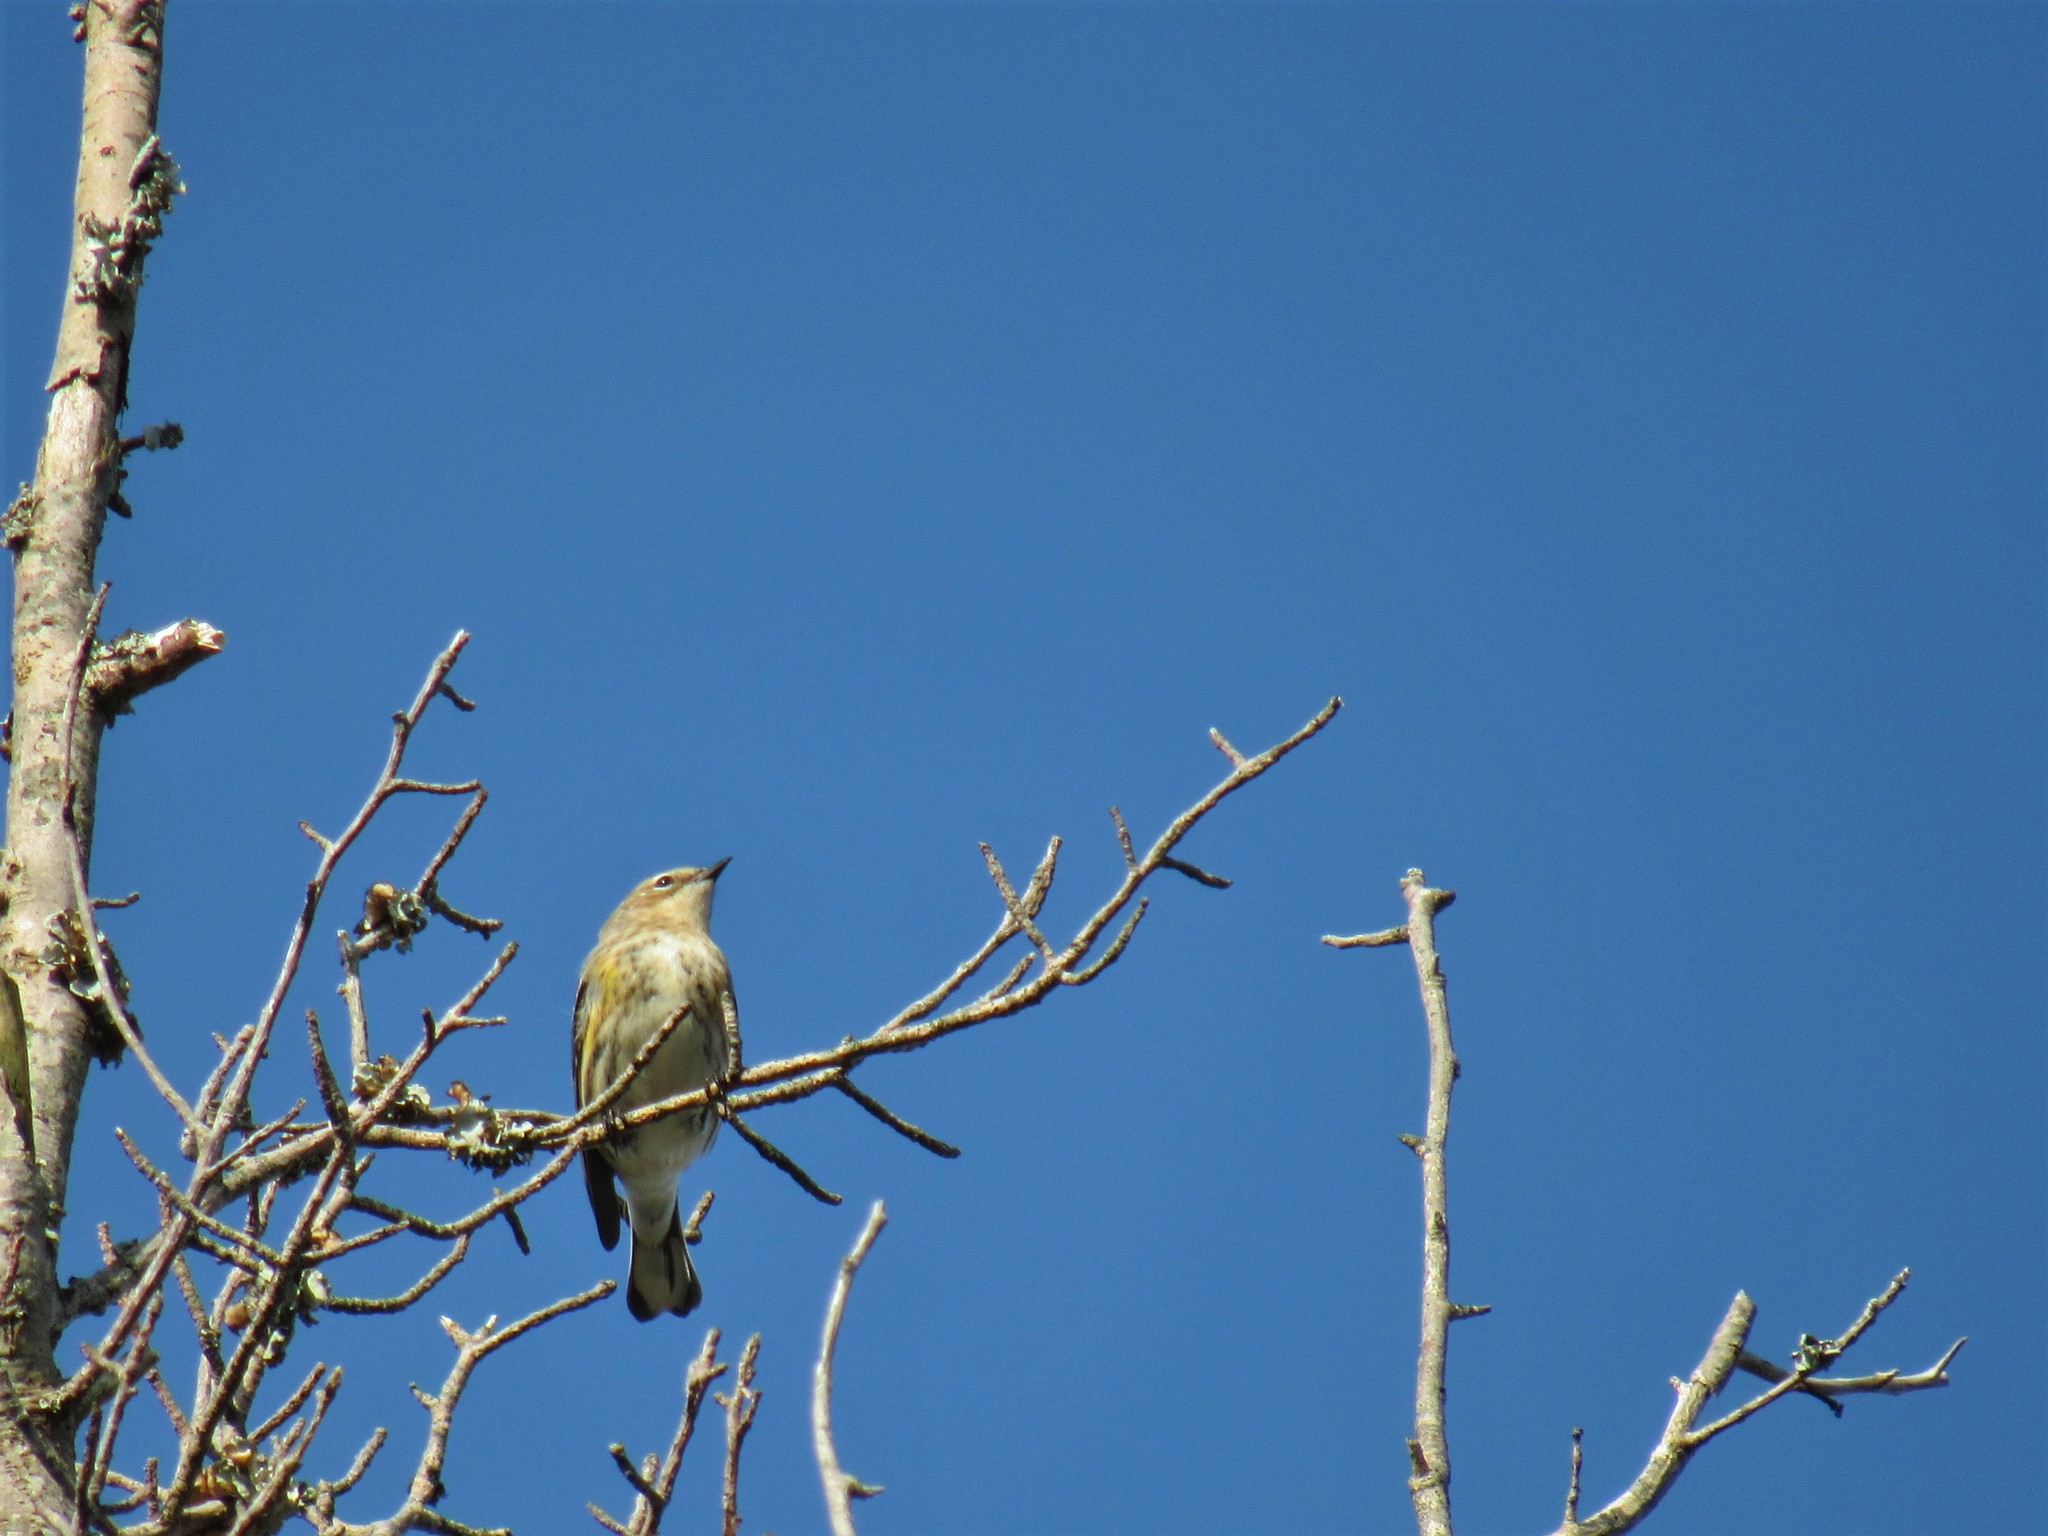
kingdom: Animalia
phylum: Chordata
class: Aves
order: Passeriformes
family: Parulidae
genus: Setophaga
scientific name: Setophaga coronata
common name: Myrtle warbler
